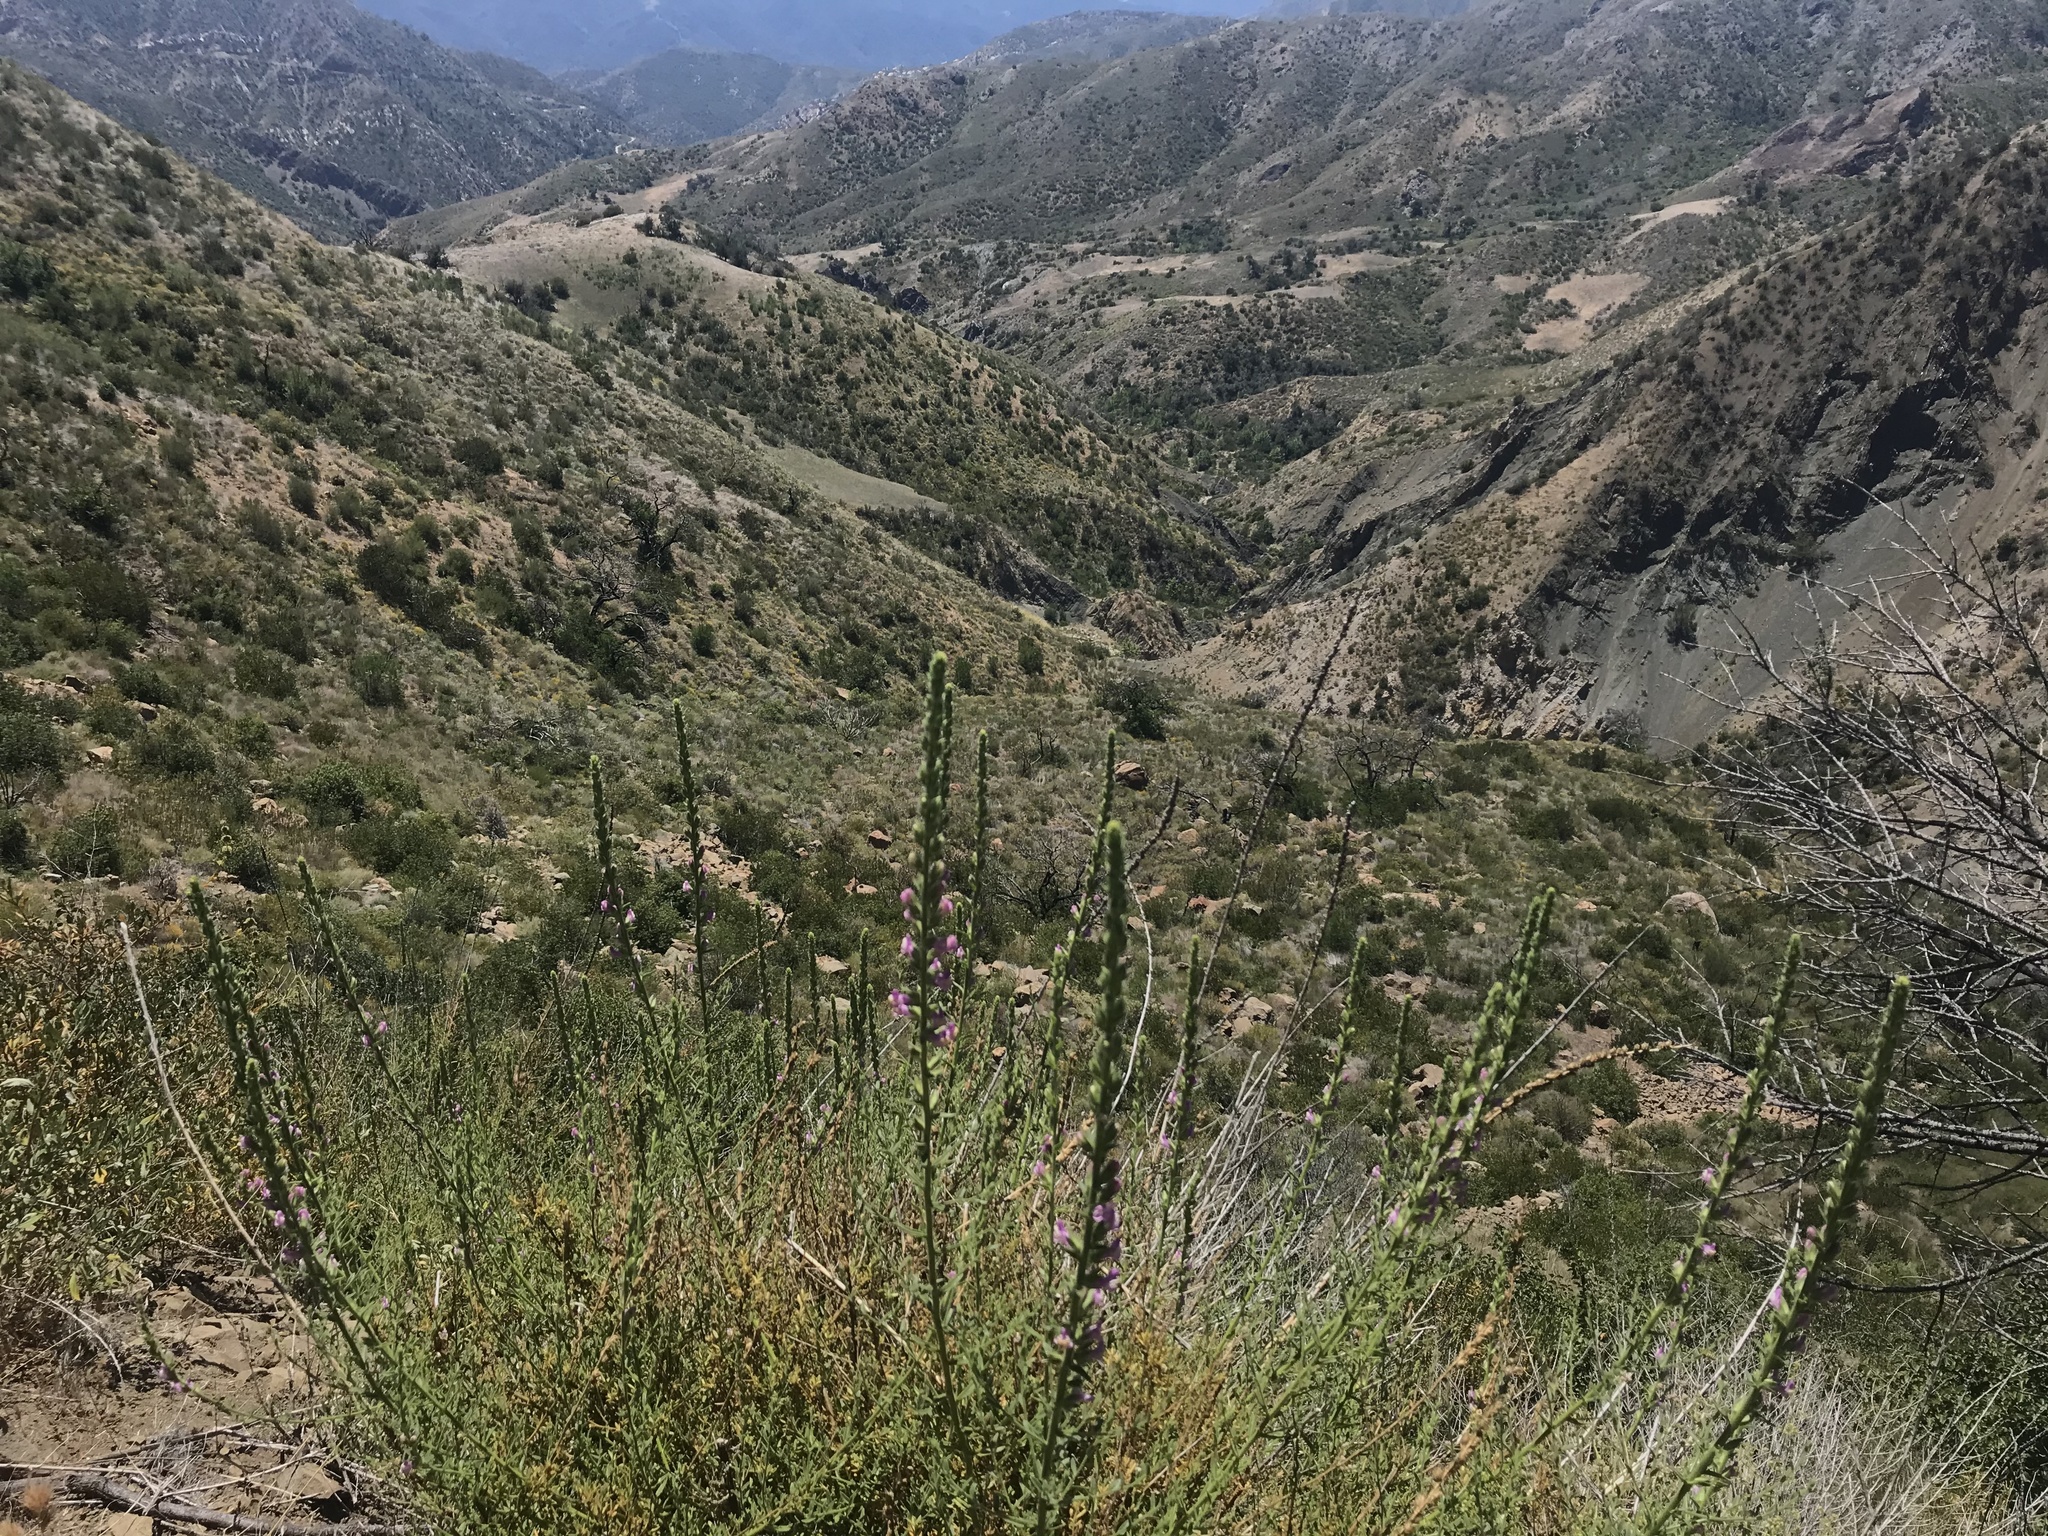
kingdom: Plantae
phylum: Tracheophyta
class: Magnoliopsida
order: Lamiales
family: Plantaginaceae
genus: Sairocarpus
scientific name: Sairocarpus multiflorus
